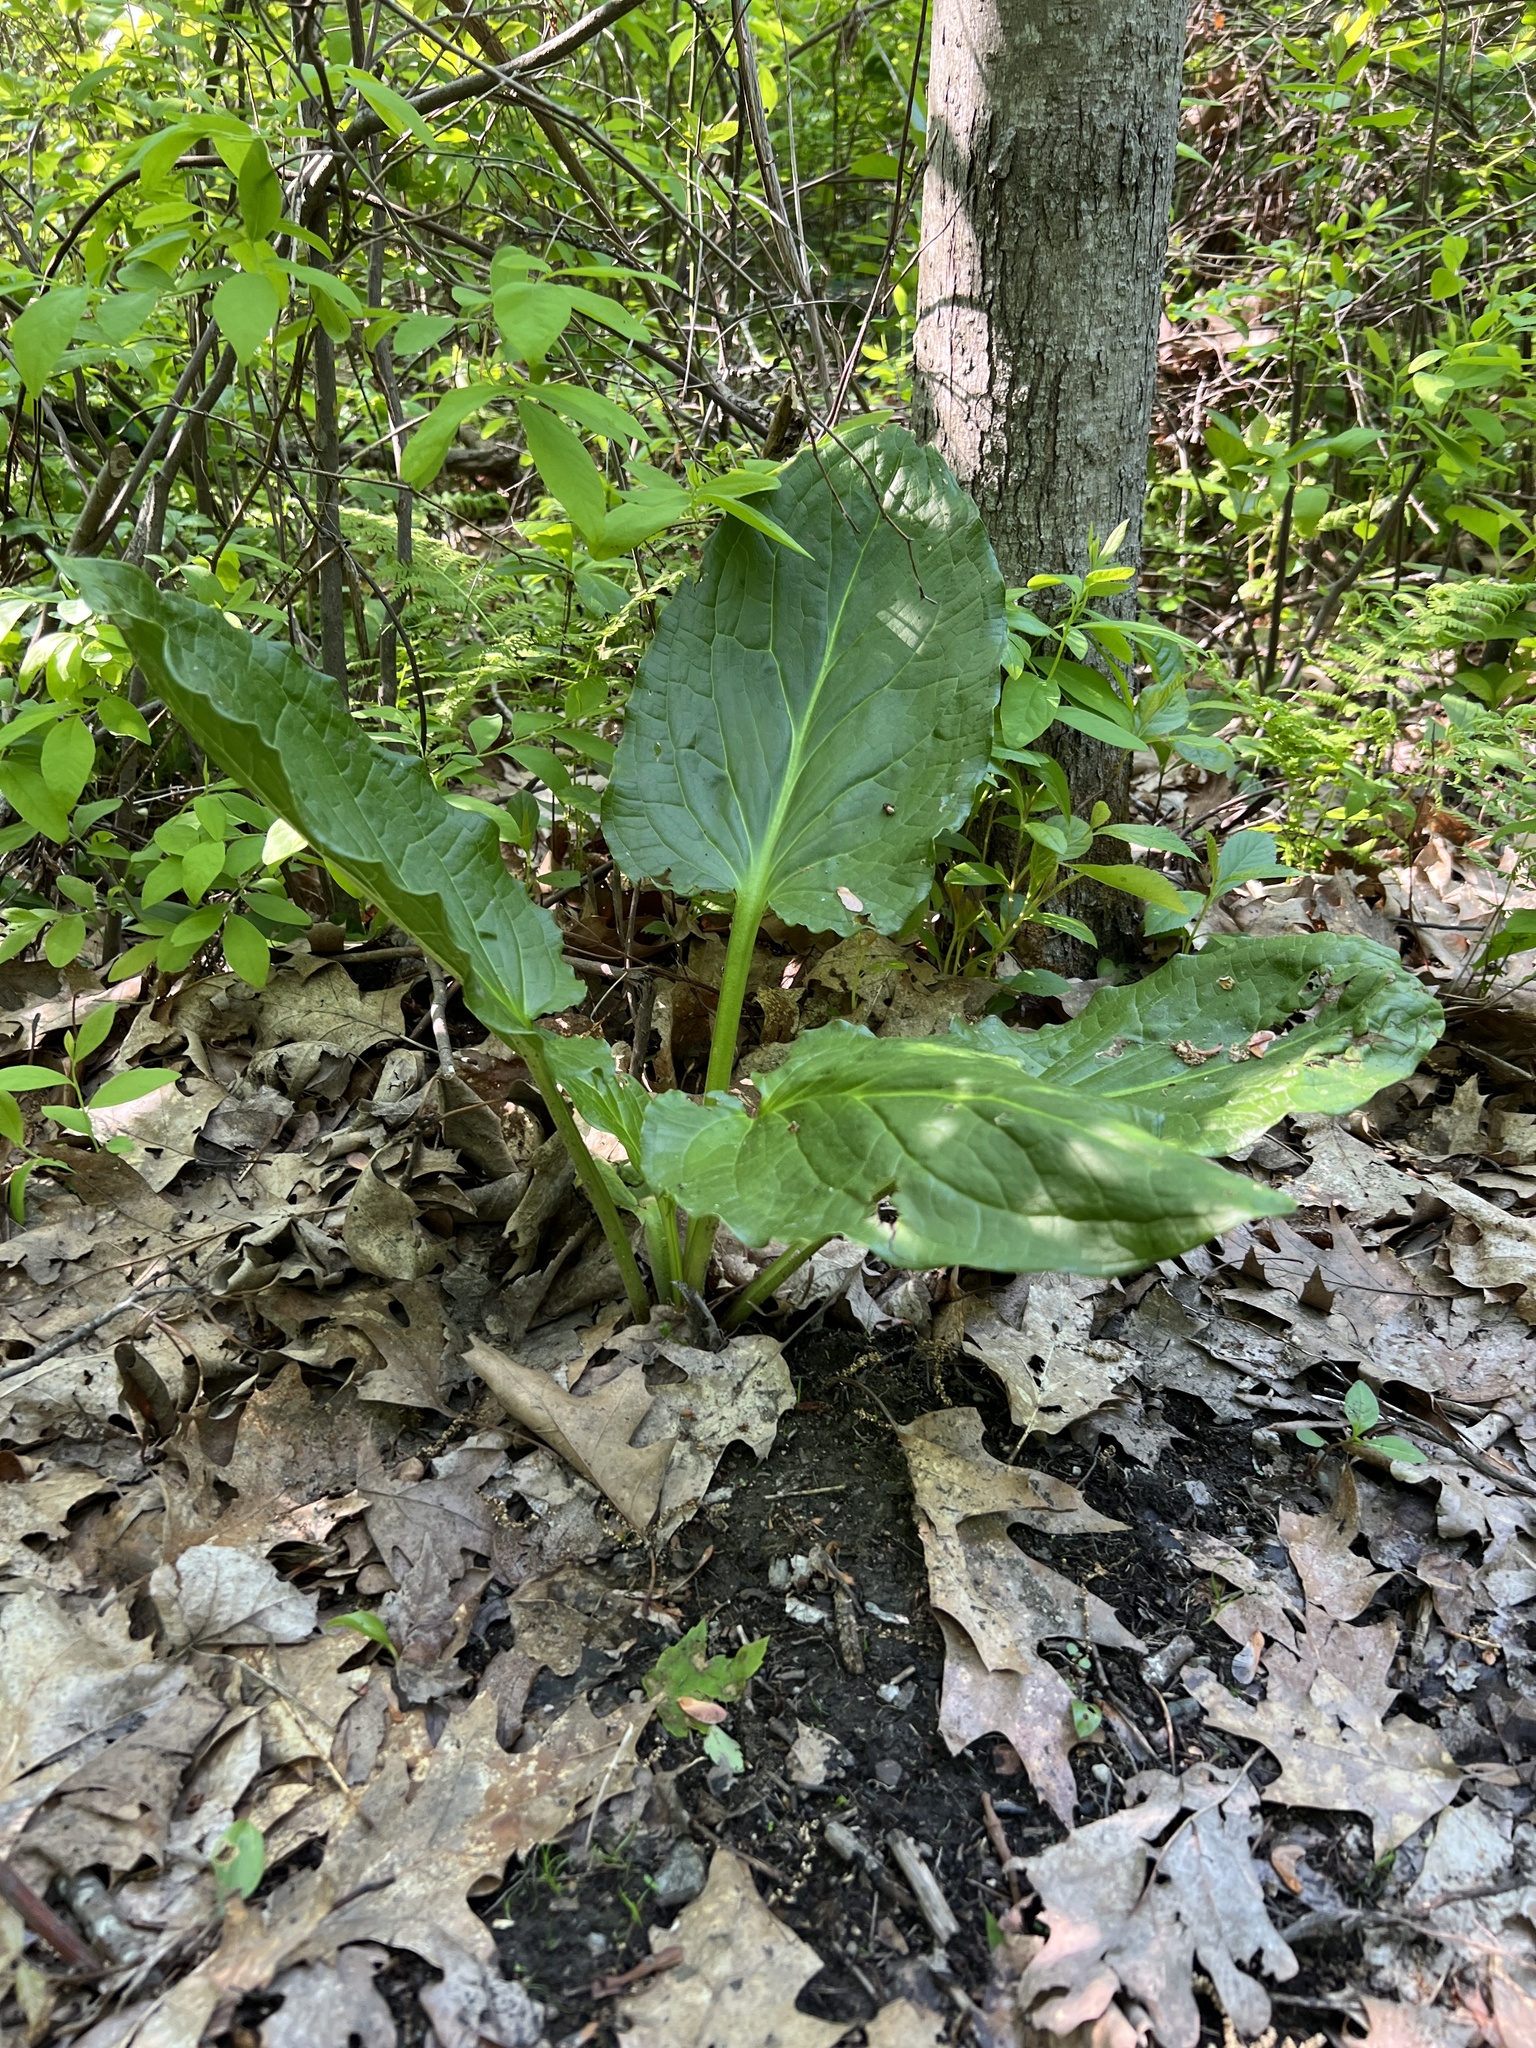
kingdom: Plantae
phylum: Tracheophyta
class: Liliopsida
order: Alismatales
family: Araceae
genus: Symplocarpus
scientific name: Symplocarpus foetidus
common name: Eastern skunk cabbage
